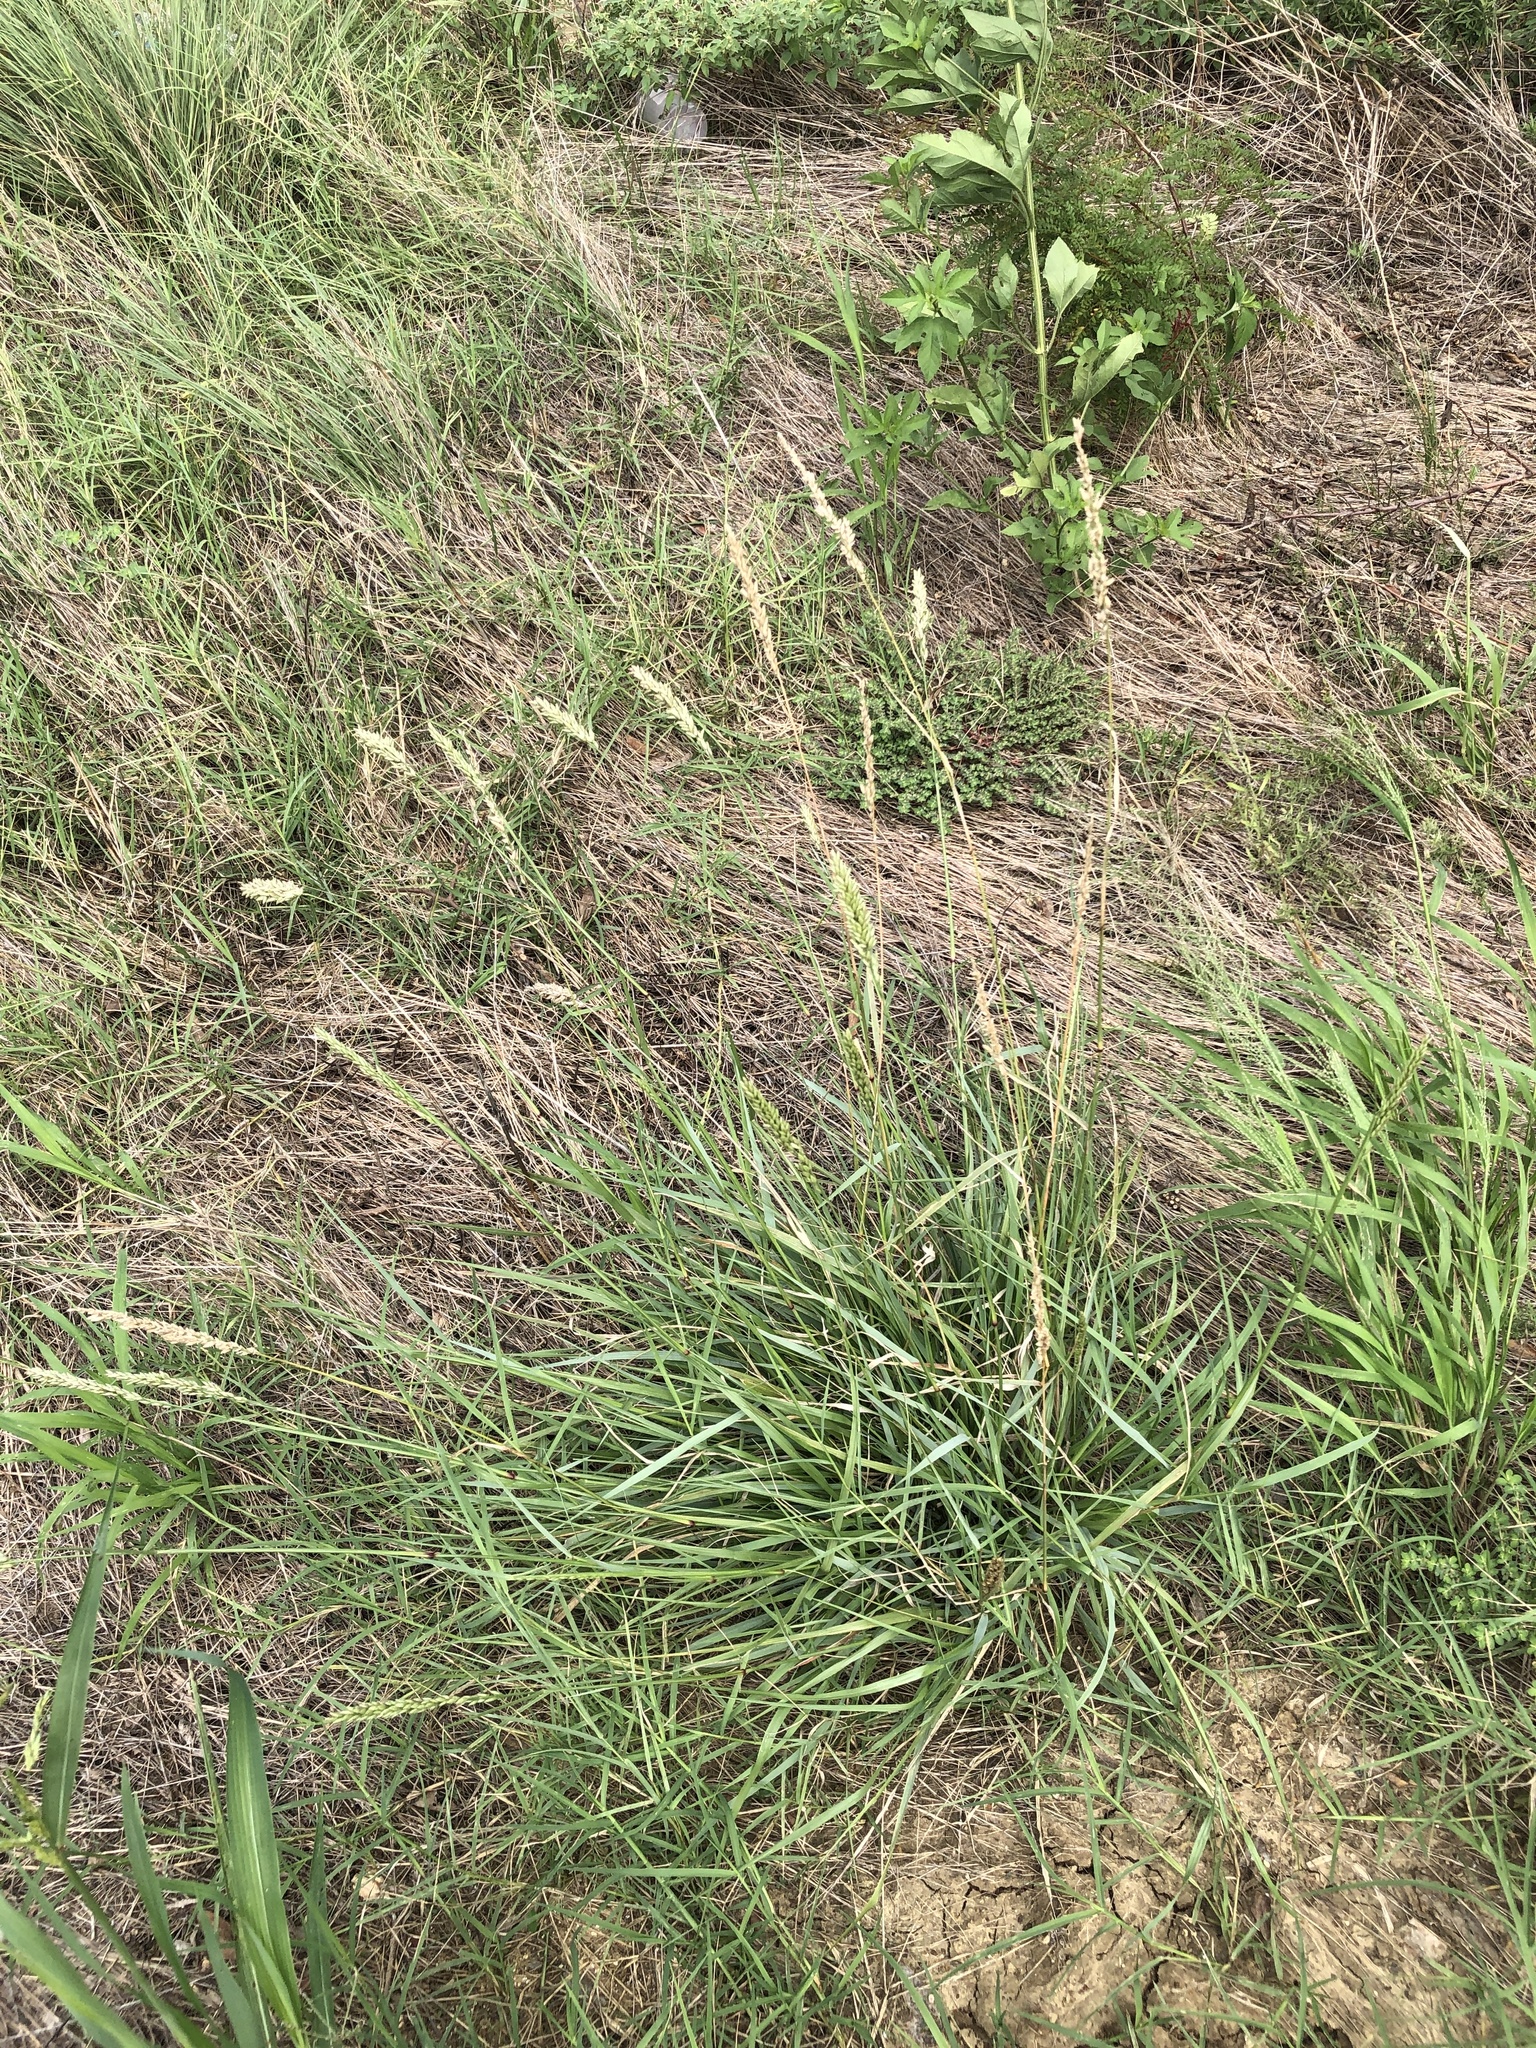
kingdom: Plantae
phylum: Tracheophyta
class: Liliopsida
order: Poales
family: Poaceae
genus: Tridens
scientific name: Tridens congestus
